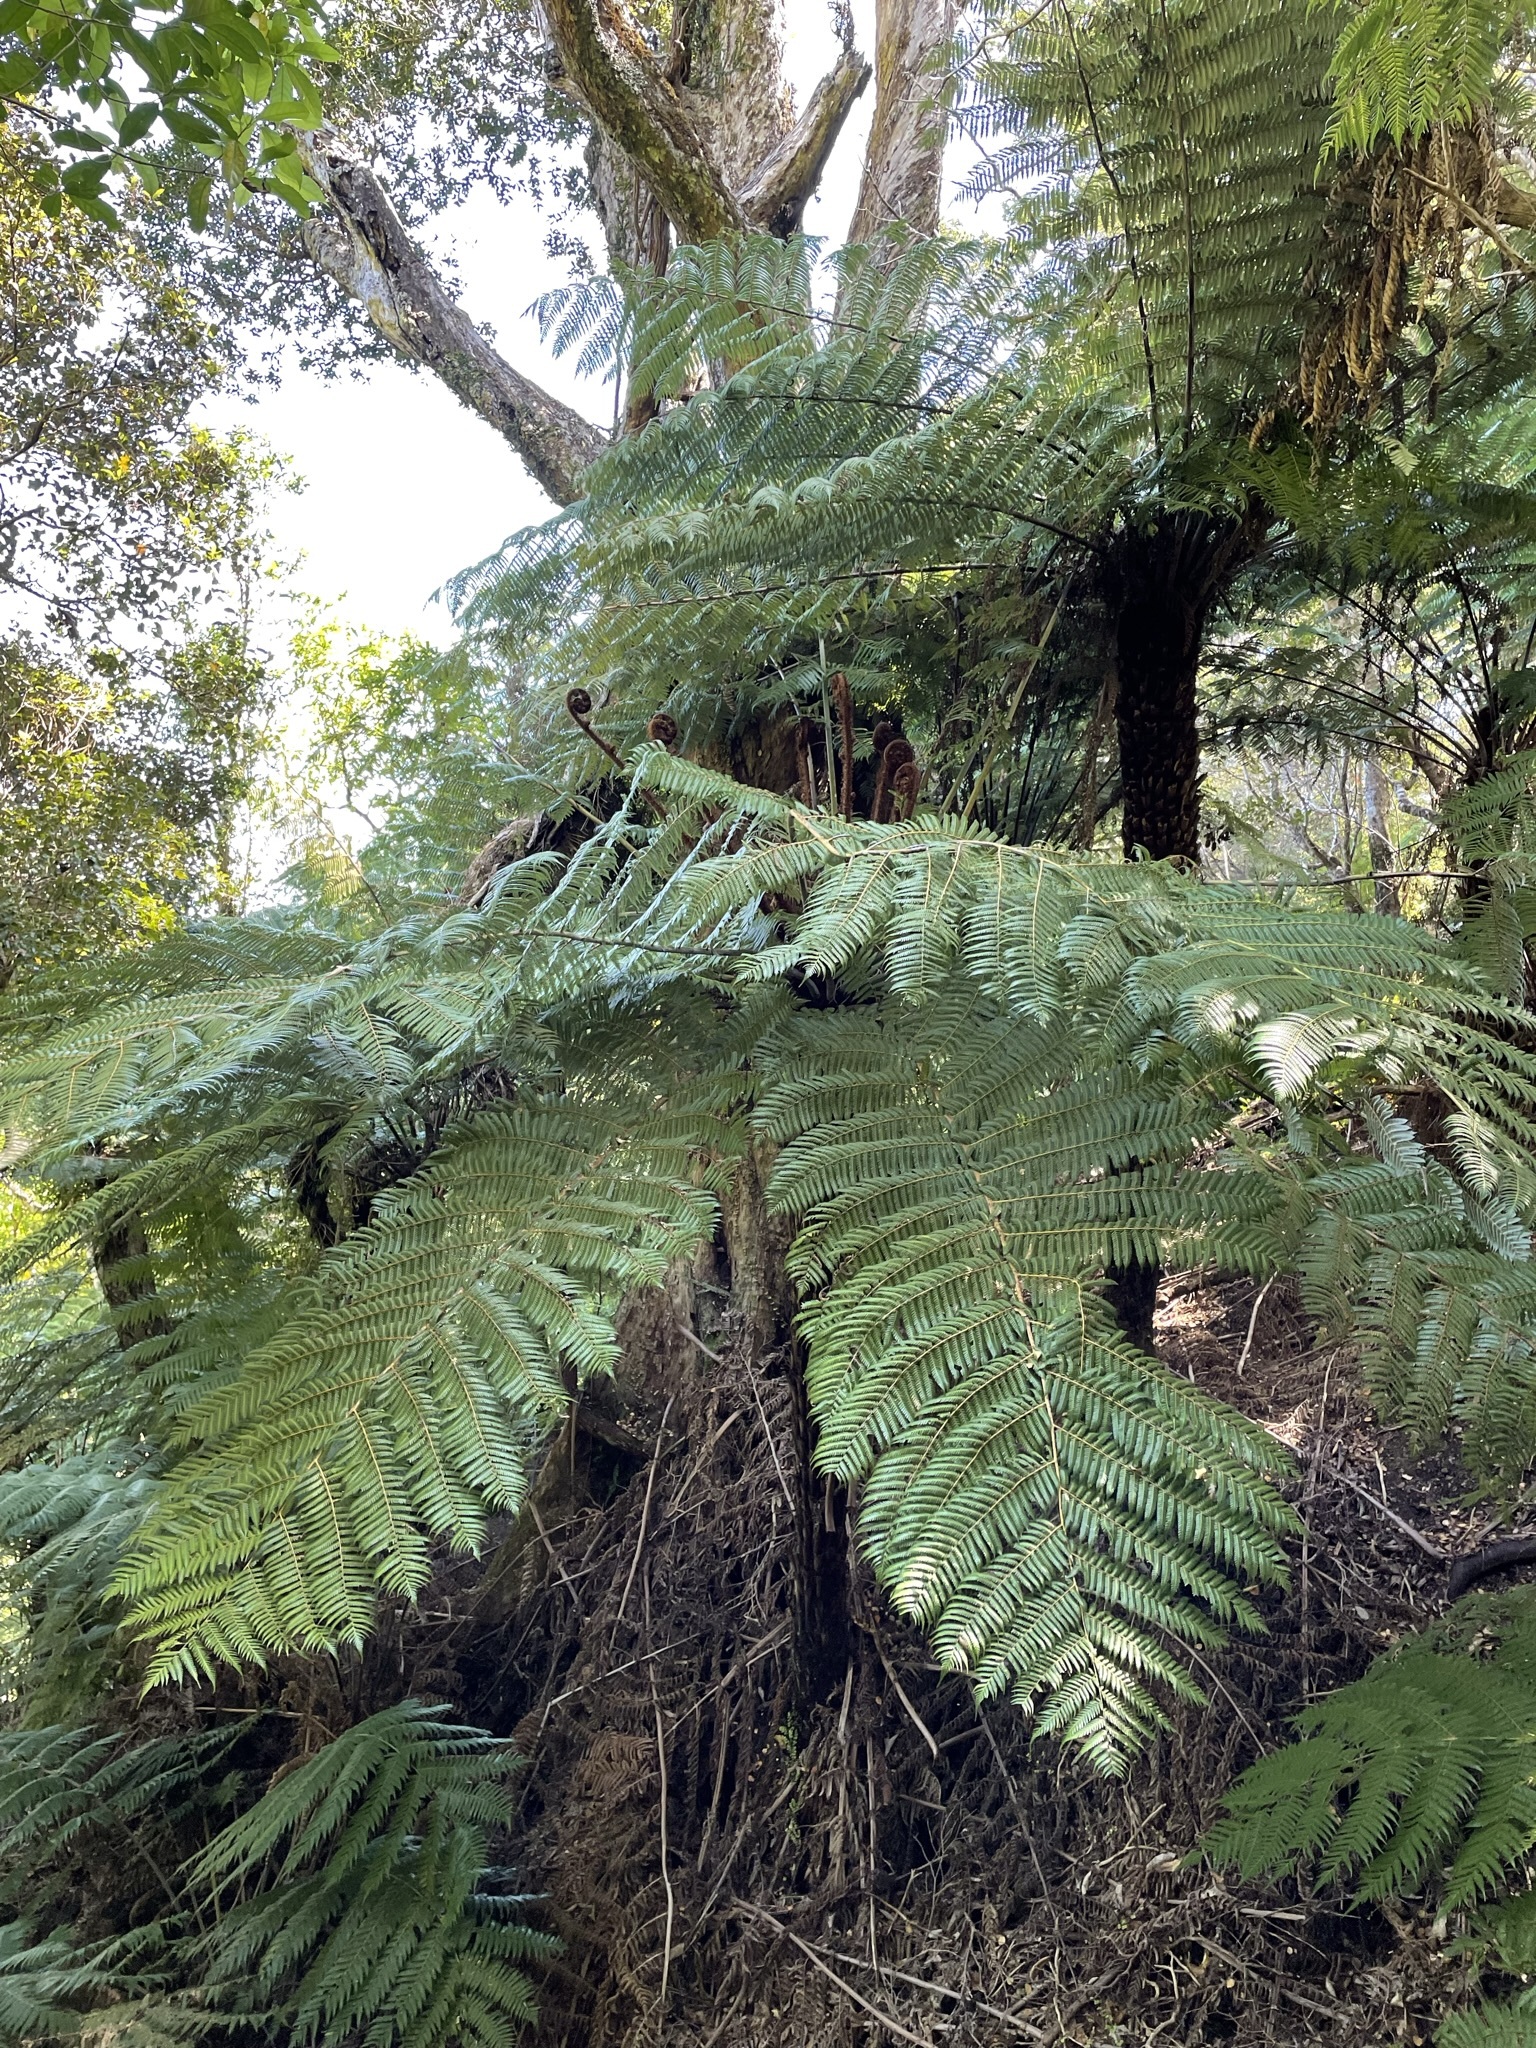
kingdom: Plantae
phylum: Tracheophyta
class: Polypodiopsida
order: Cyatheales
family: Cyatheaceae
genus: Alsophila
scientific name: Alsophila dealbata
